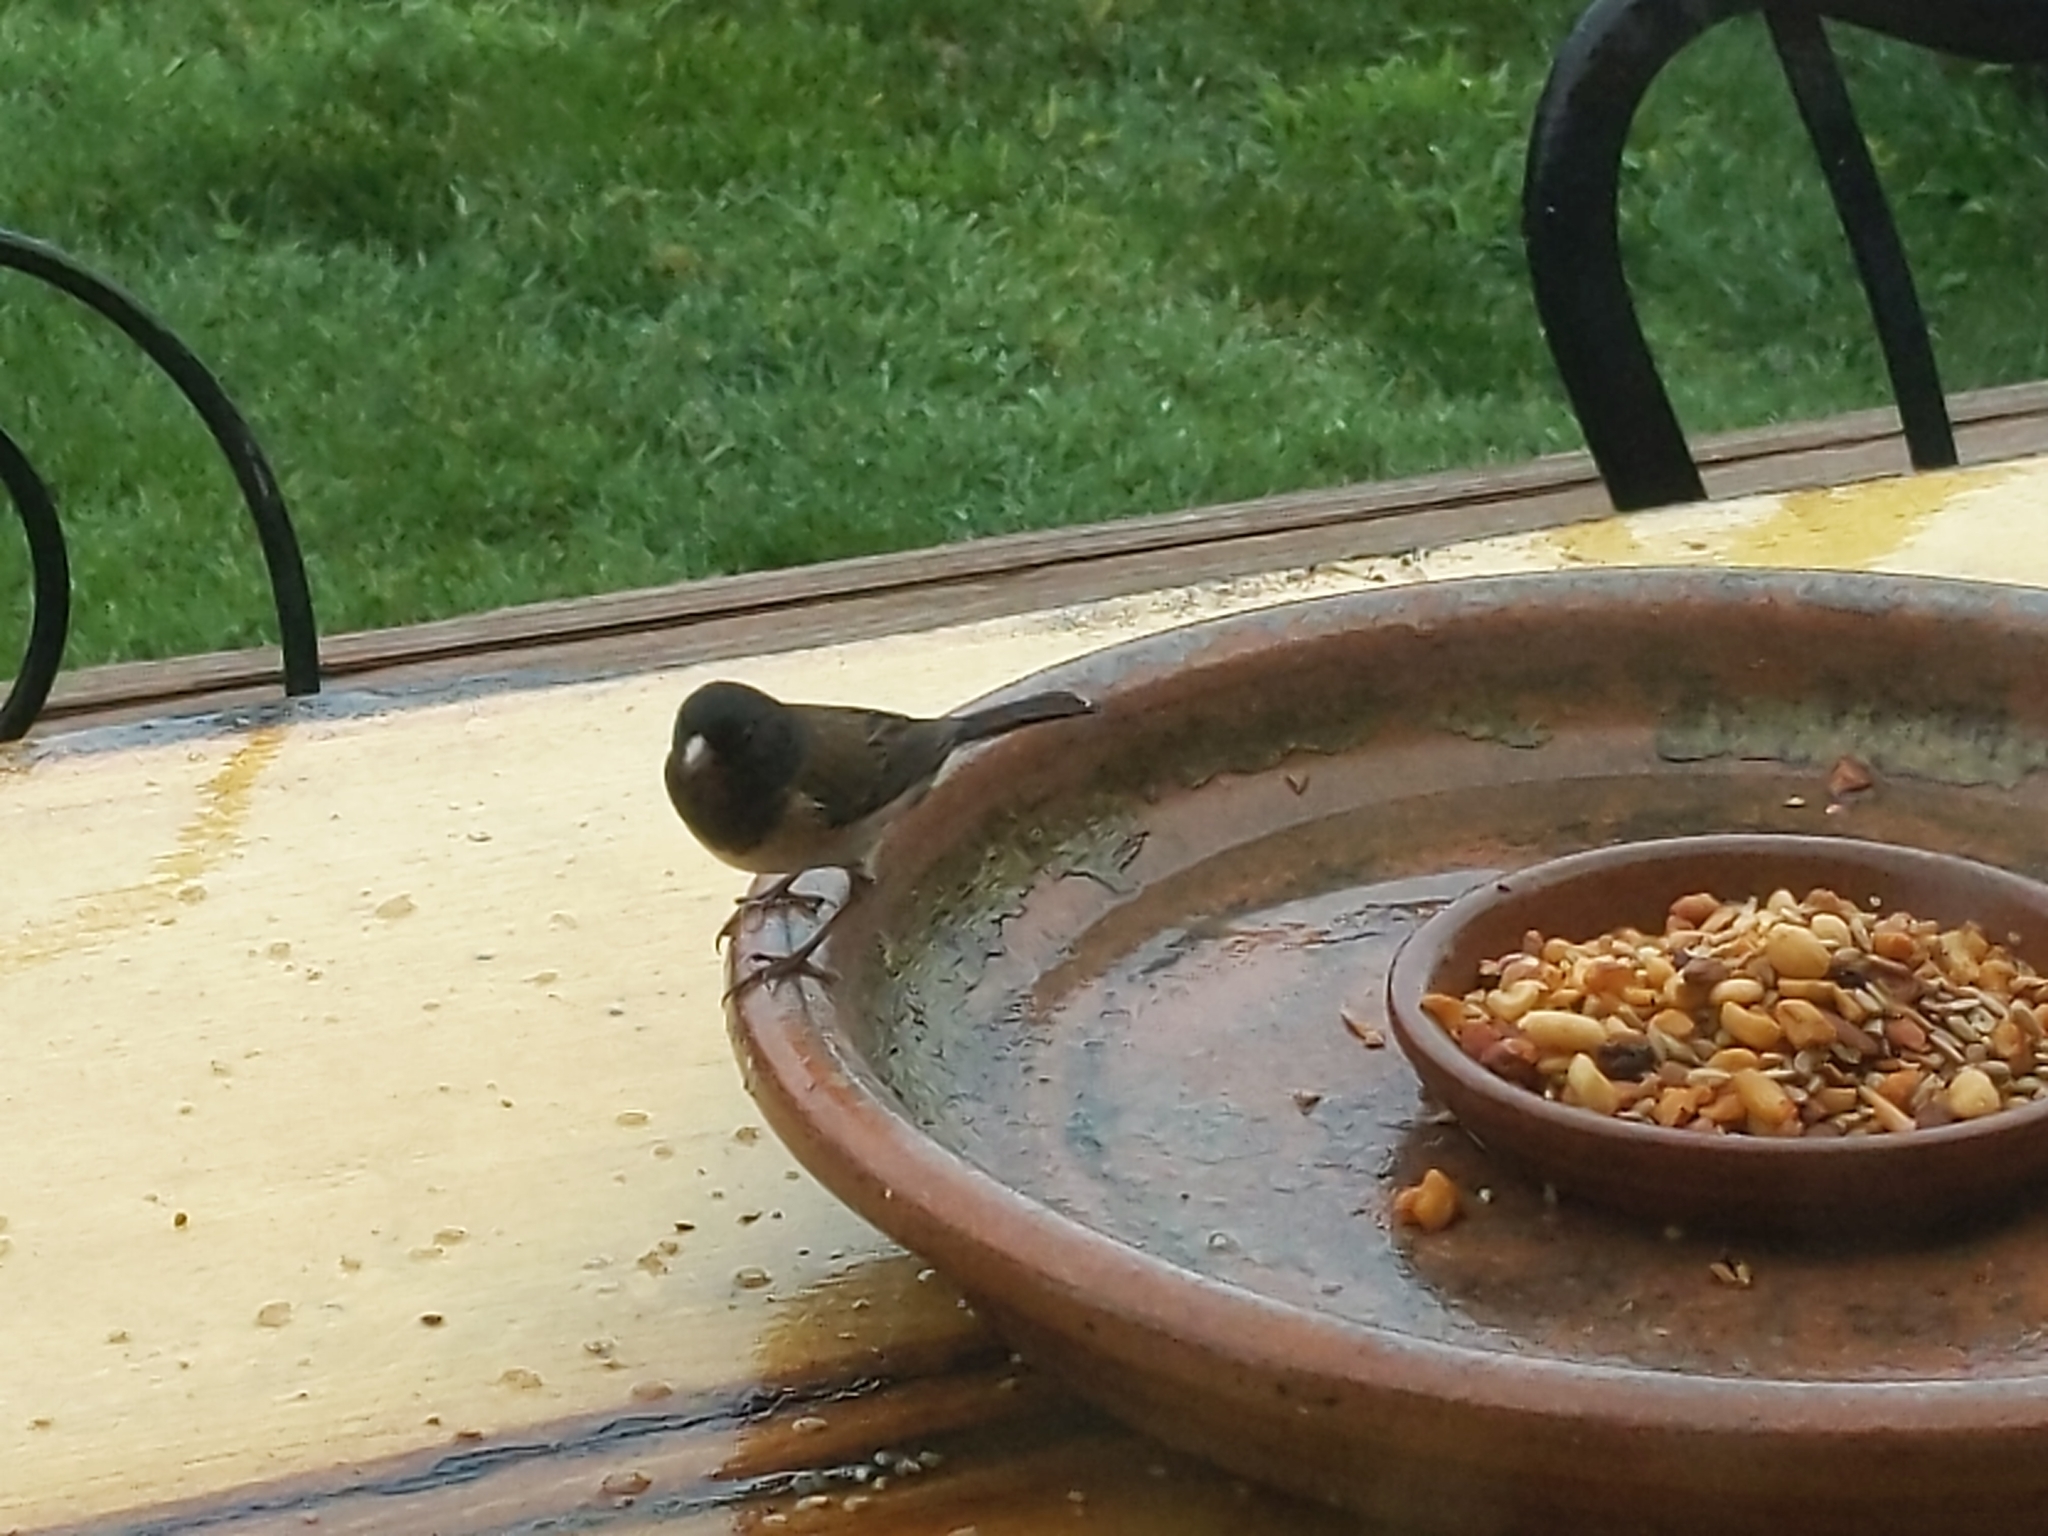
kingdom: Animalia
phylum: Chordata
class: Aves
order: Passeriformes
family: Passerellidae
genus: Junco
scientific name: Junco hyemalis
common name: Dark-eyed junco
